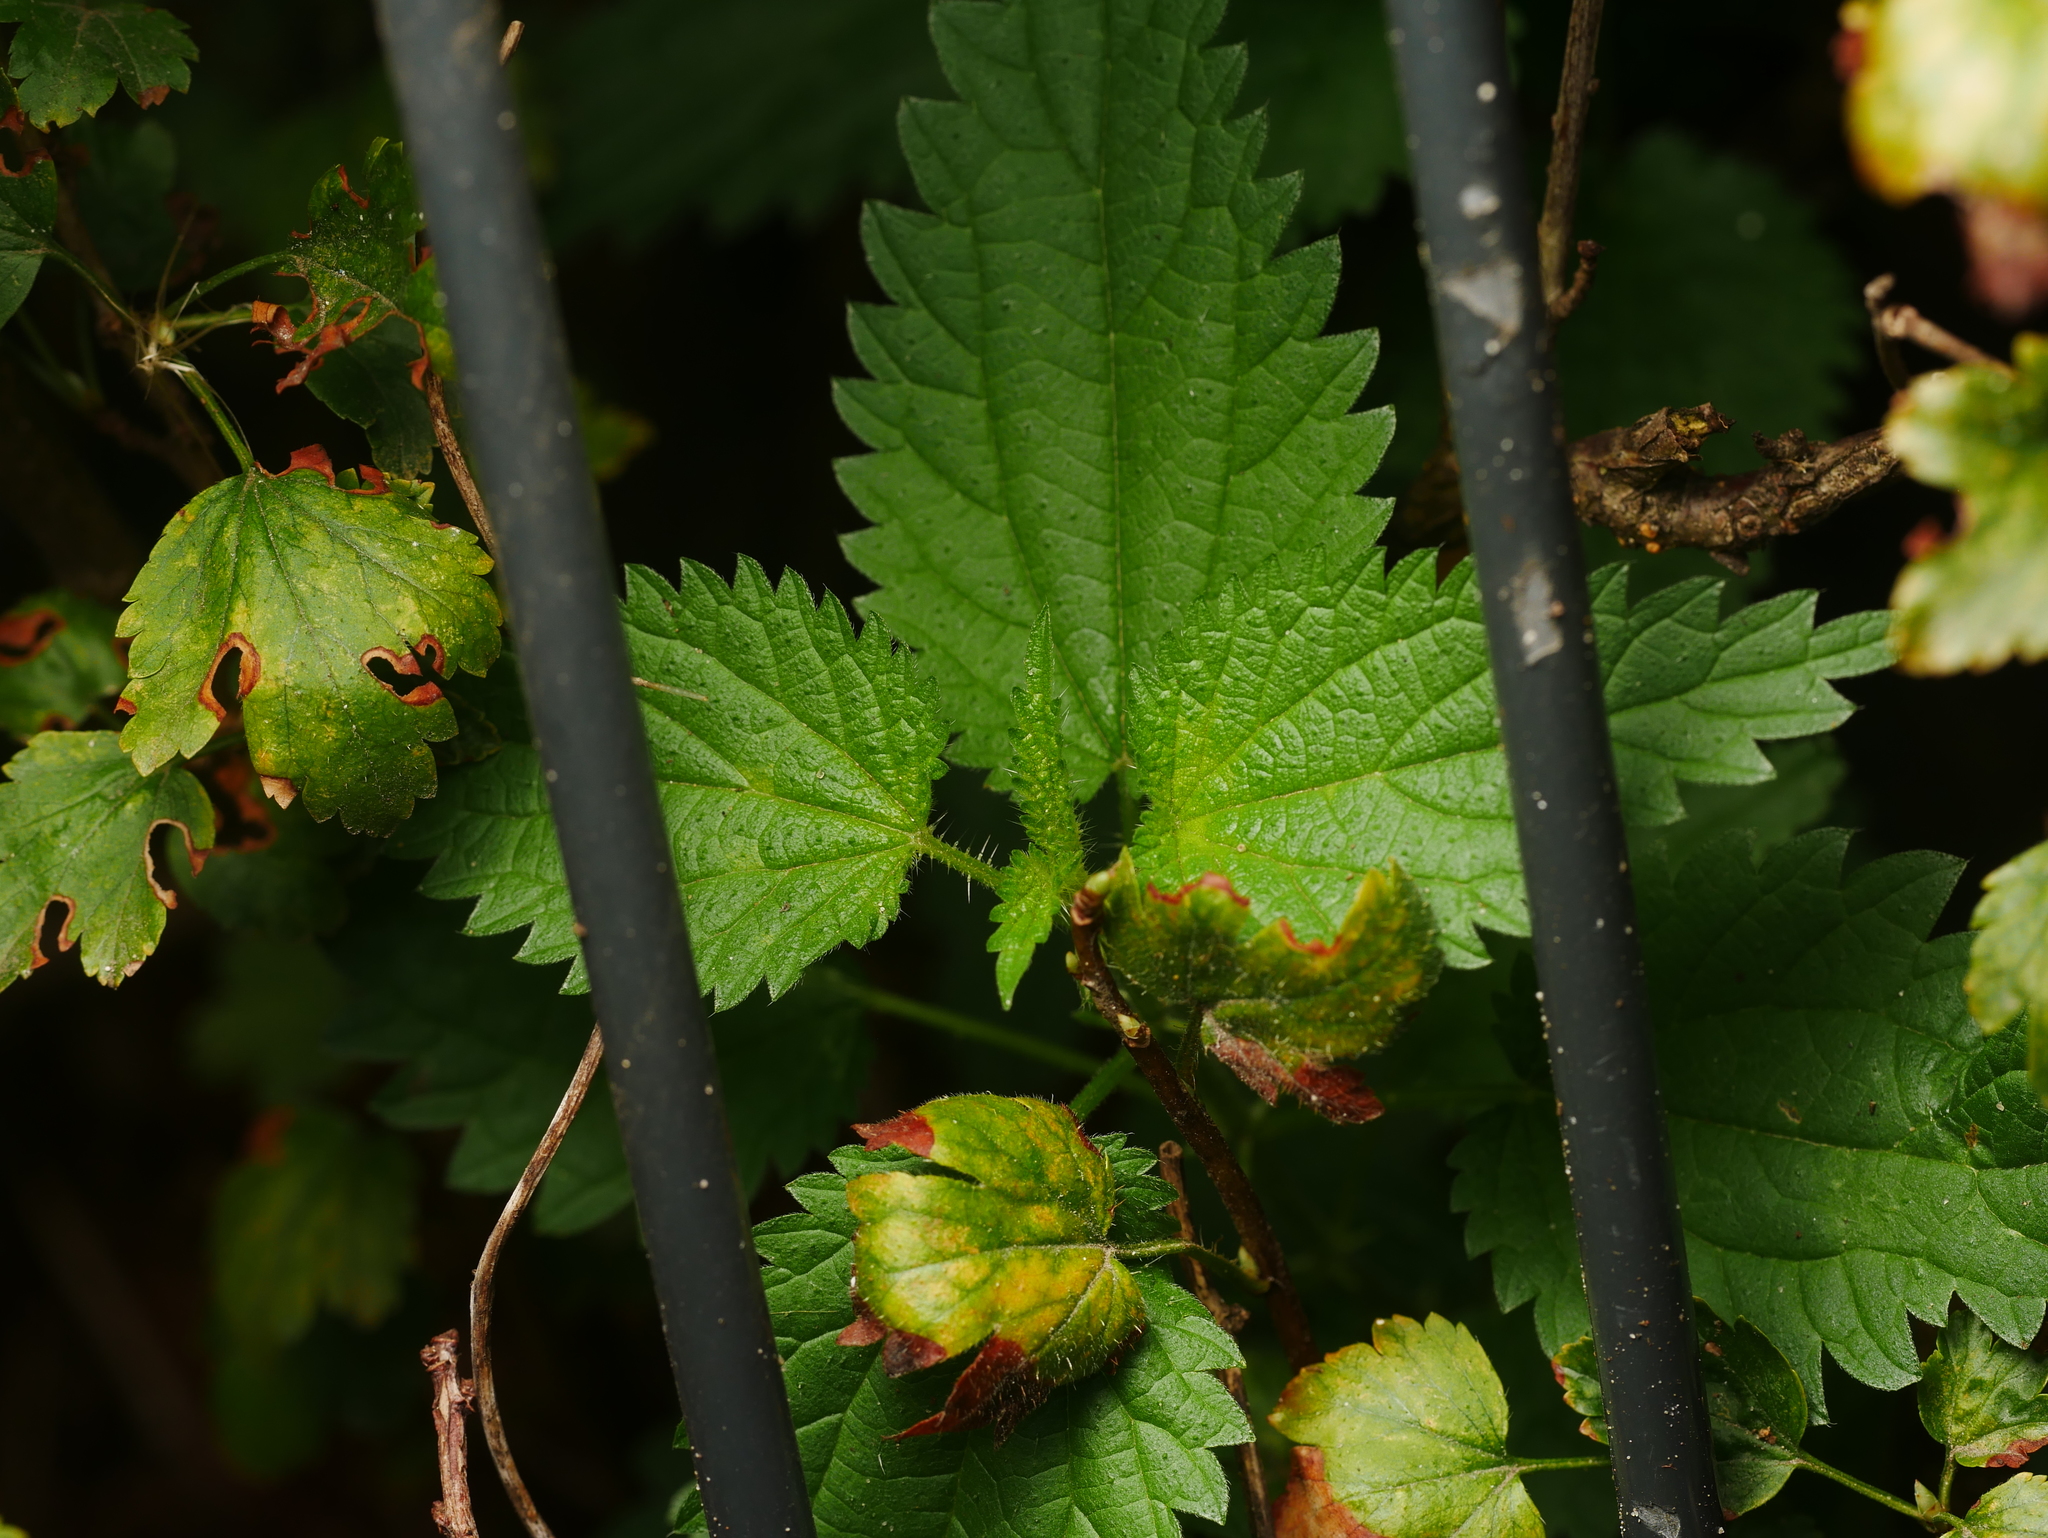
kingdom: Plantae
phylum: Tracheophyta
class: Magnoliopsida
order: Rosales
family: Urticaceae
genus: Urtica
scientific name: Urtica dioica
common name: Common nettle
